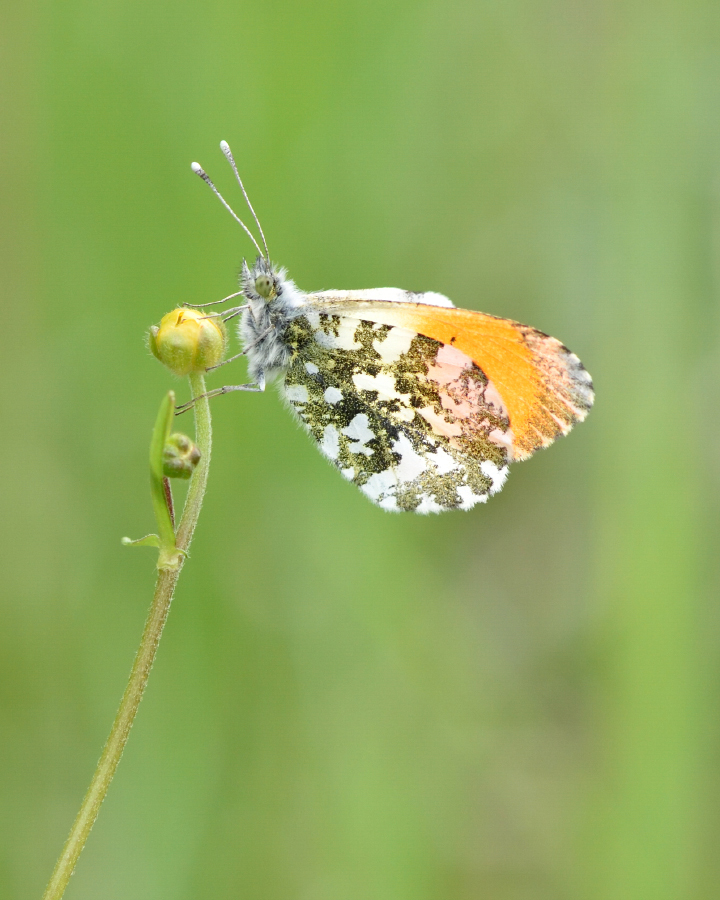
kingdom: Animalia
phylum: Arthropoda
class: Insecta
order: Lepidoptera
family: Pieridae
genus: Anthocharis
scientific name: Anthocharis cardamines
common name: Orange-tip
